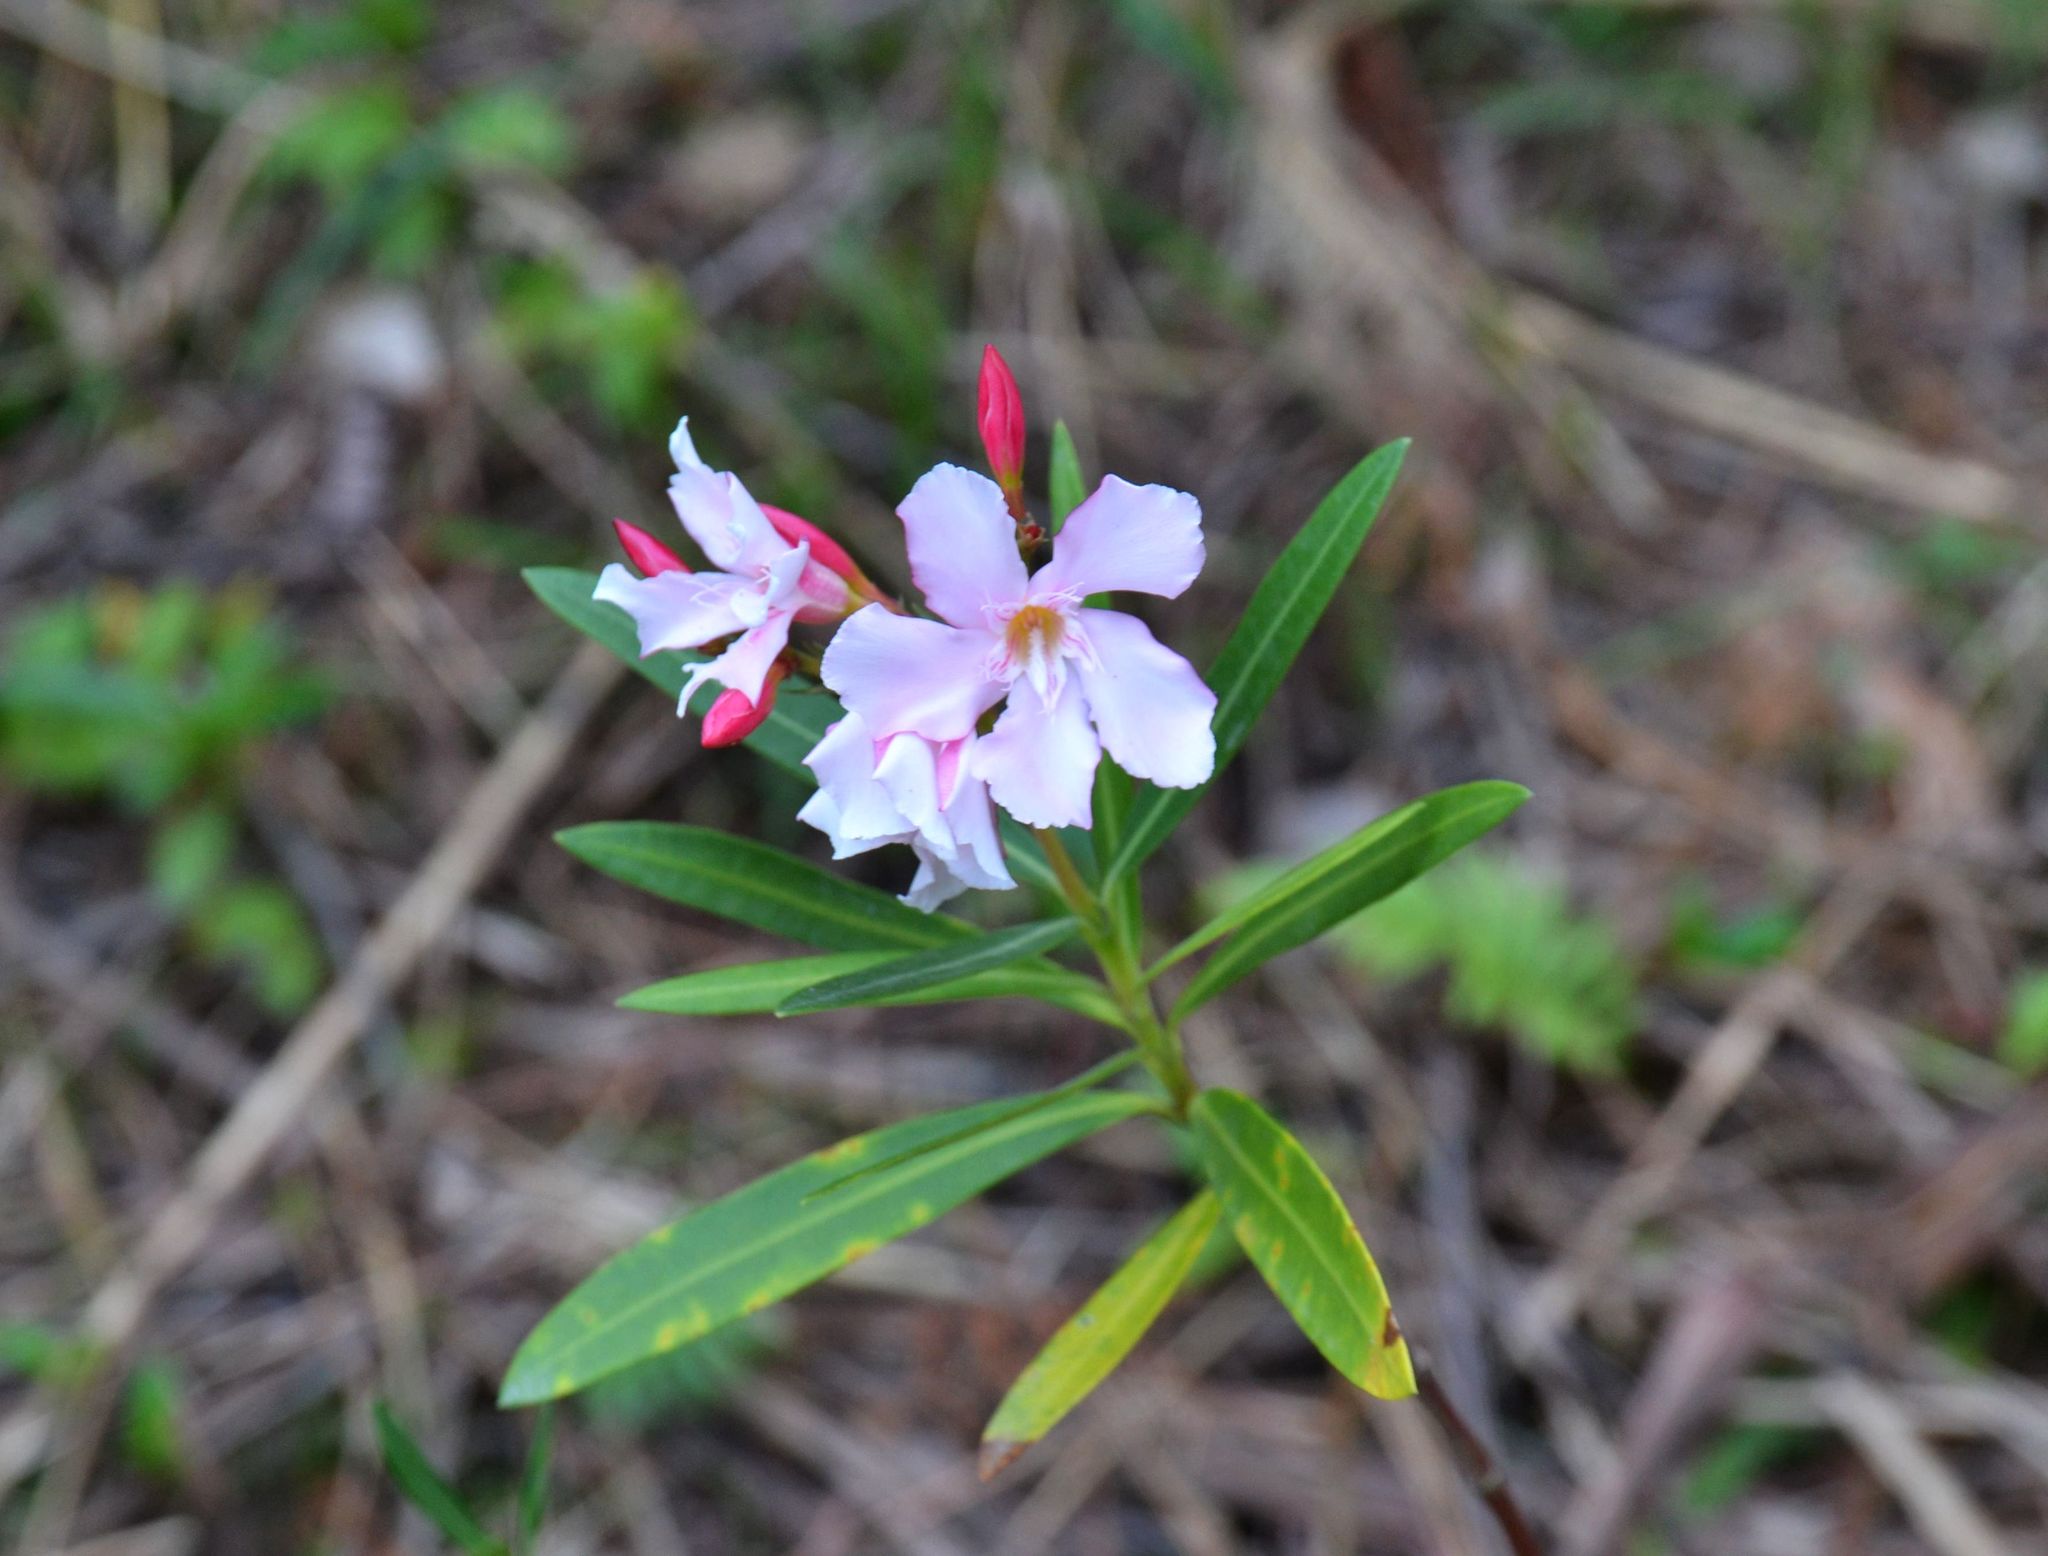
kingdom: Plantae
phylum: Tracheophyta
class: Magnoliopsida
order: Gentianales
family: Apocynaceae
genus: Nerium
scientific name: Nerium oleander
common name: Oleander
